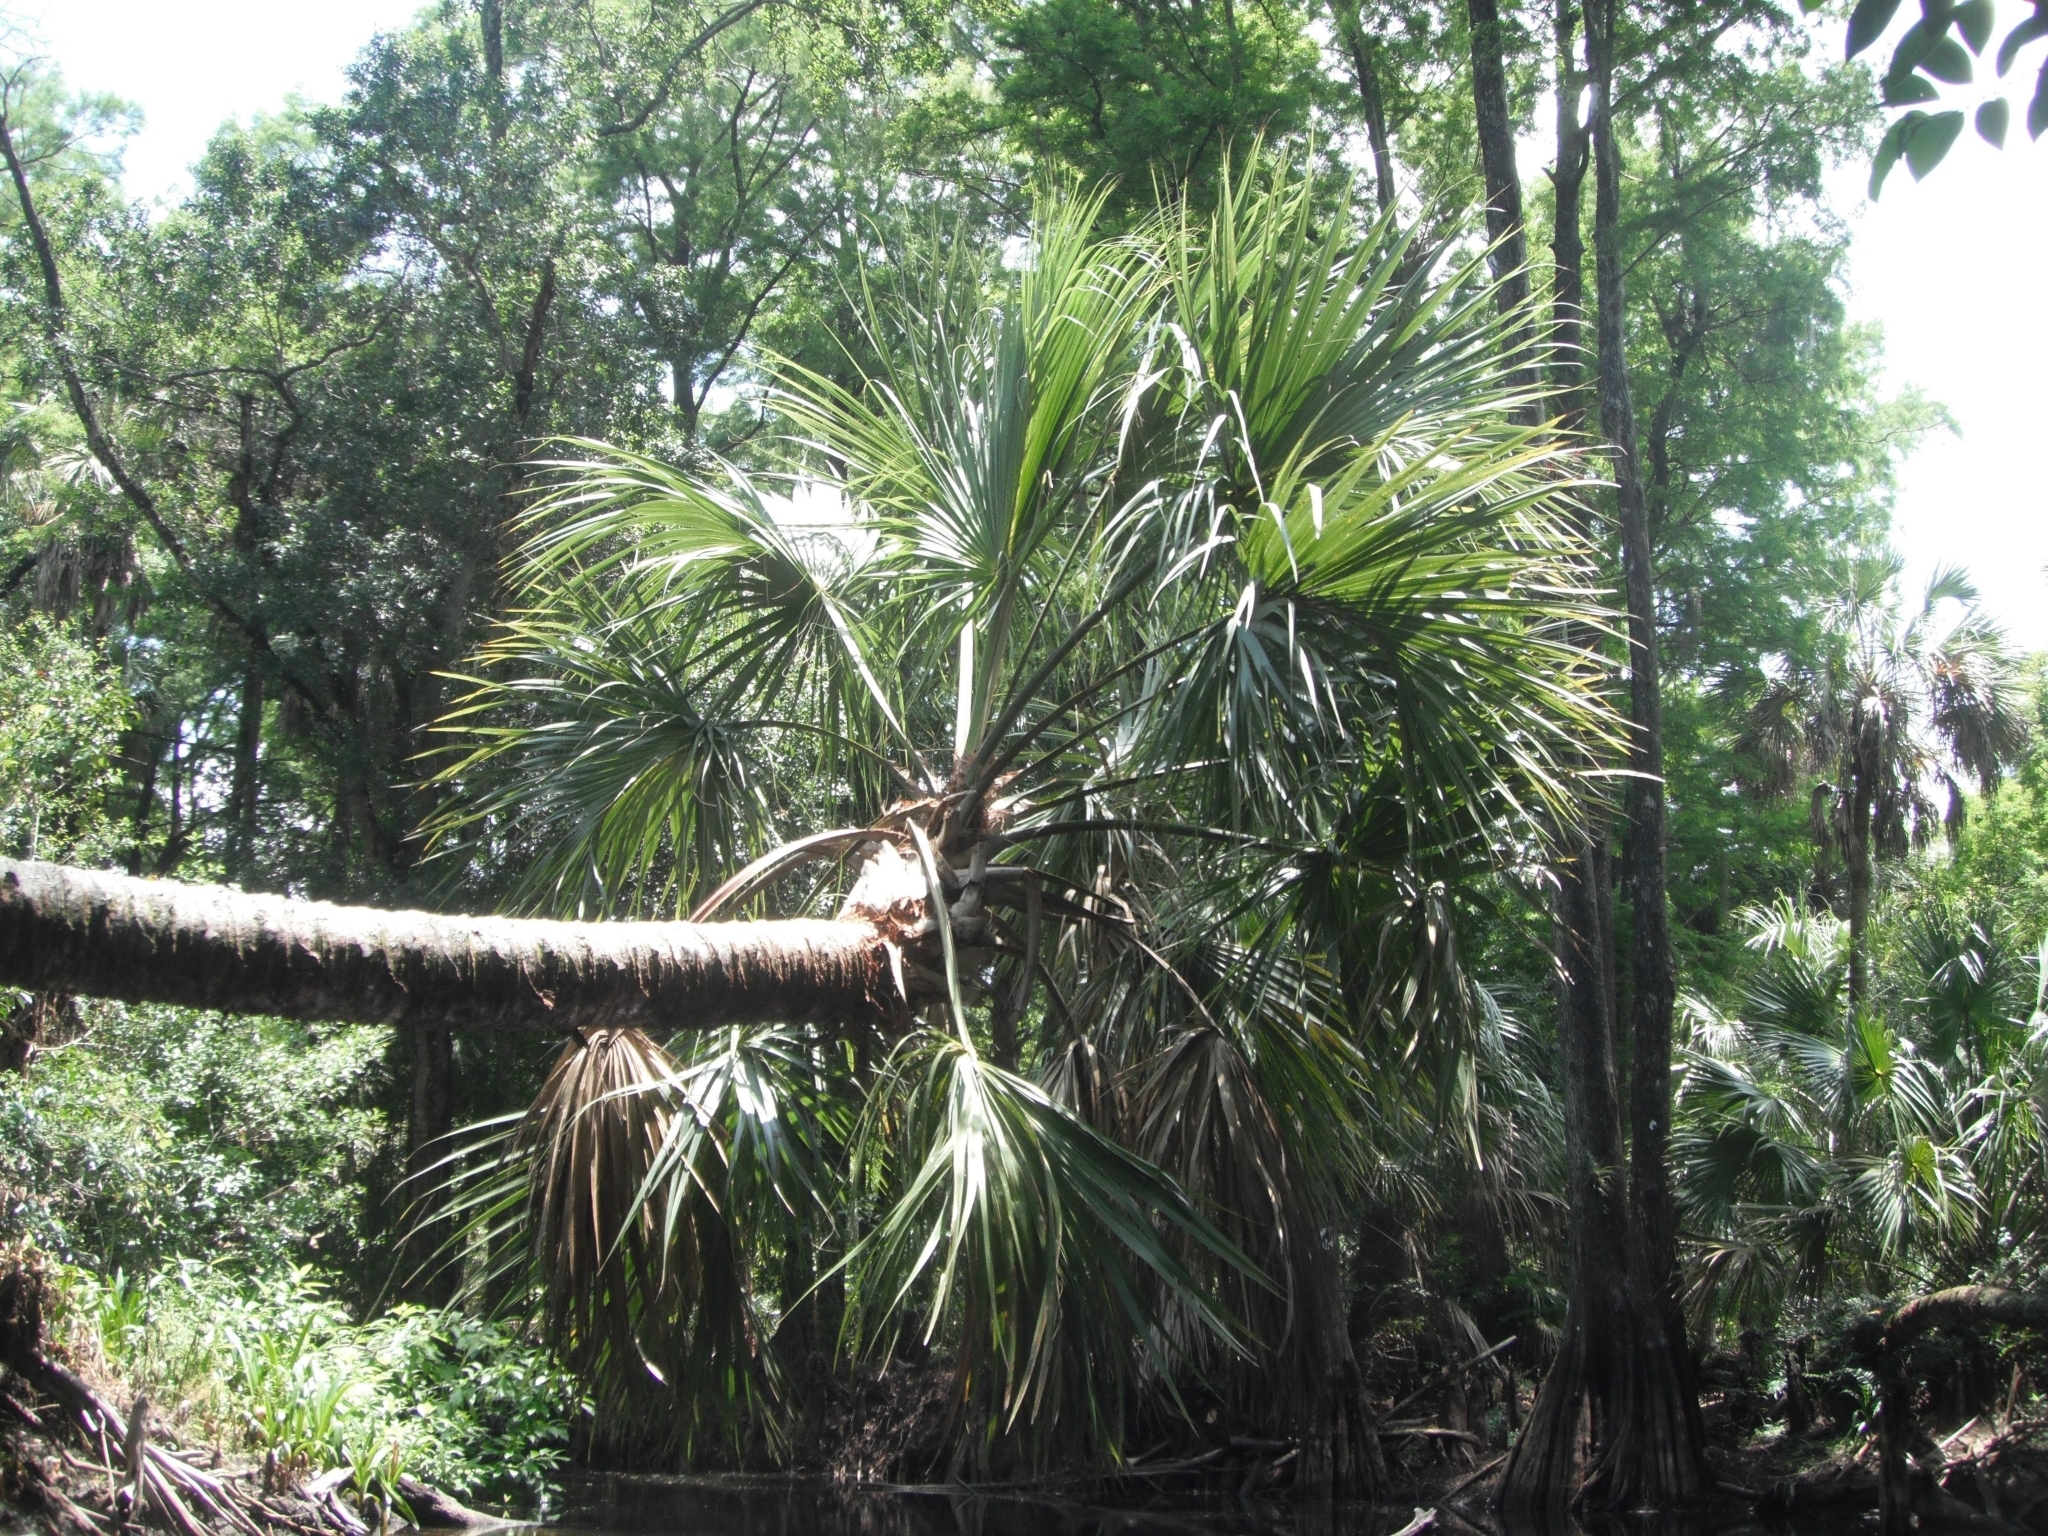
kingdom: Plantae
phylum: Tracheophyta
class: Liliopsida
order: Arecales
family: Arecaceae
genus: Sabal
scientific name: Sabal palmetto
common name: Blue palmetto
